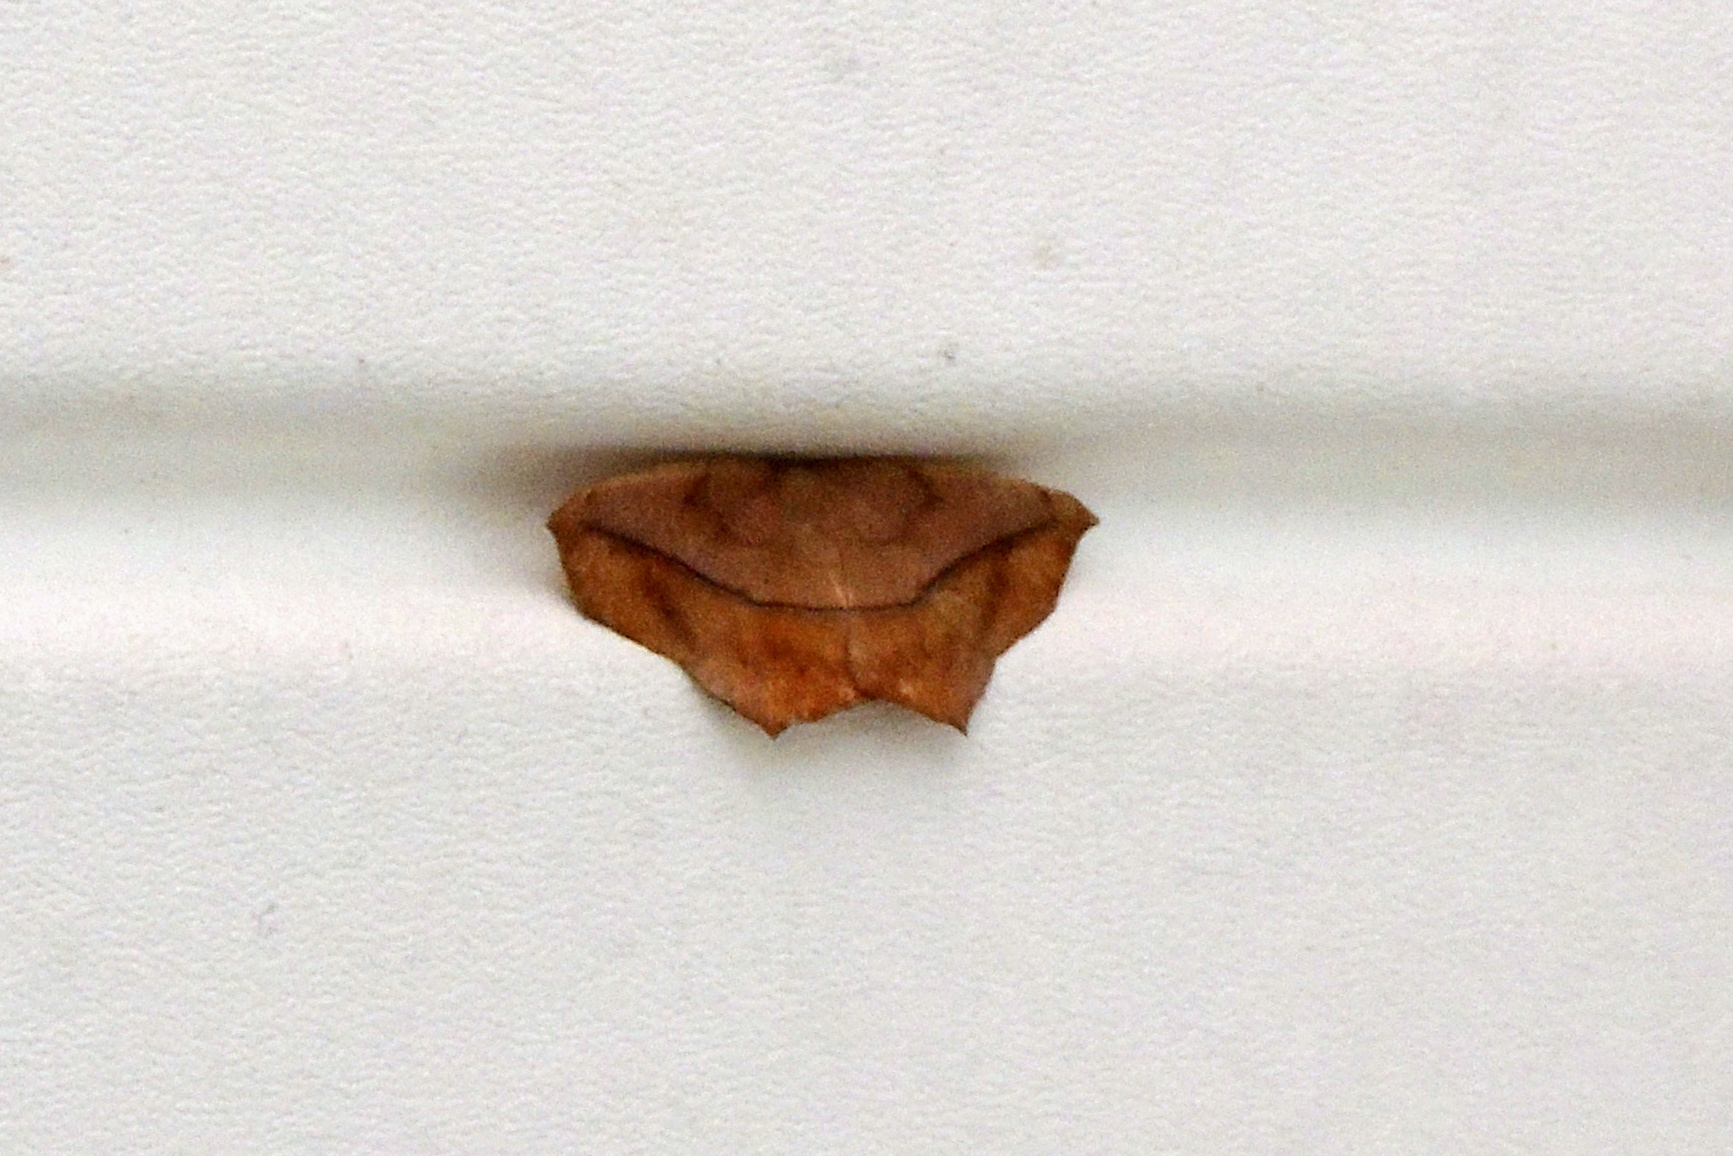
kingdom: Animalia
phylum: Arthropoda
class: Insecta
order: Lepidoptera
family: Geometridae
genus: Prochoerodes
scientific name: Prochoerodes lineola
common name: Large maple spanworm
